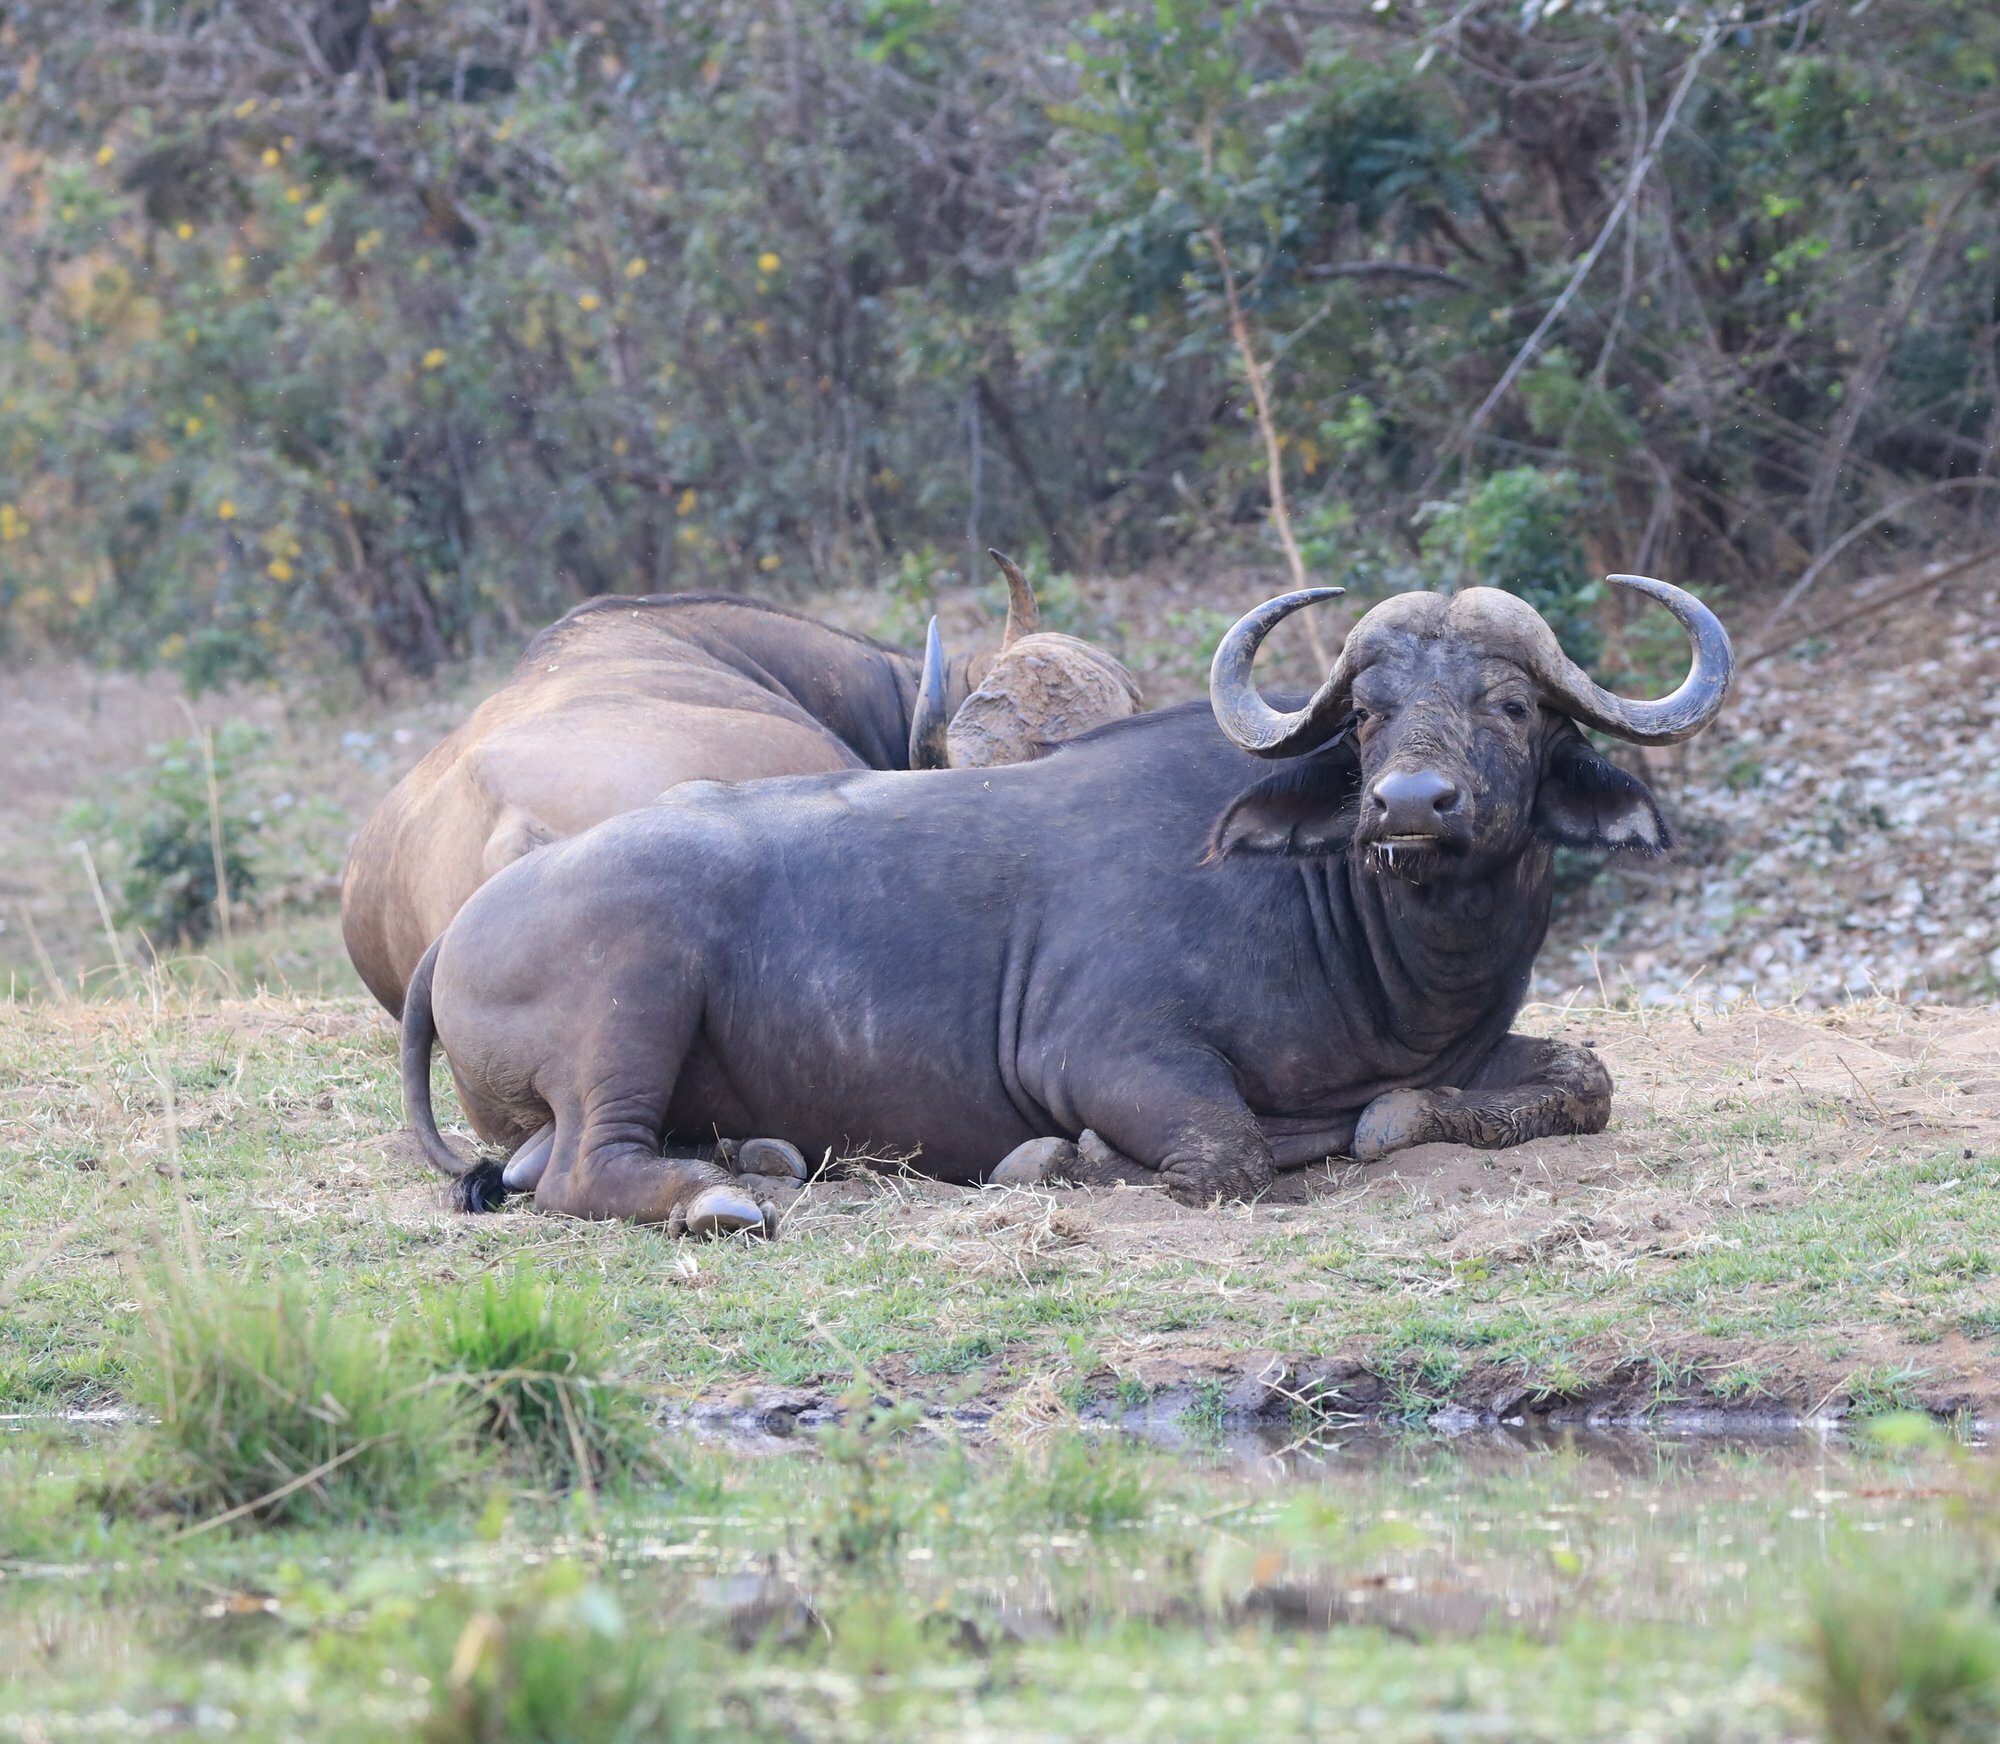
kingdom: Animalia
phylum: Chordata
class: Mammalia
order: Artiodactyla
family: Bovidae
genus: Syncerus
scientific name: Syncerus caffer
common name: African buffalo
